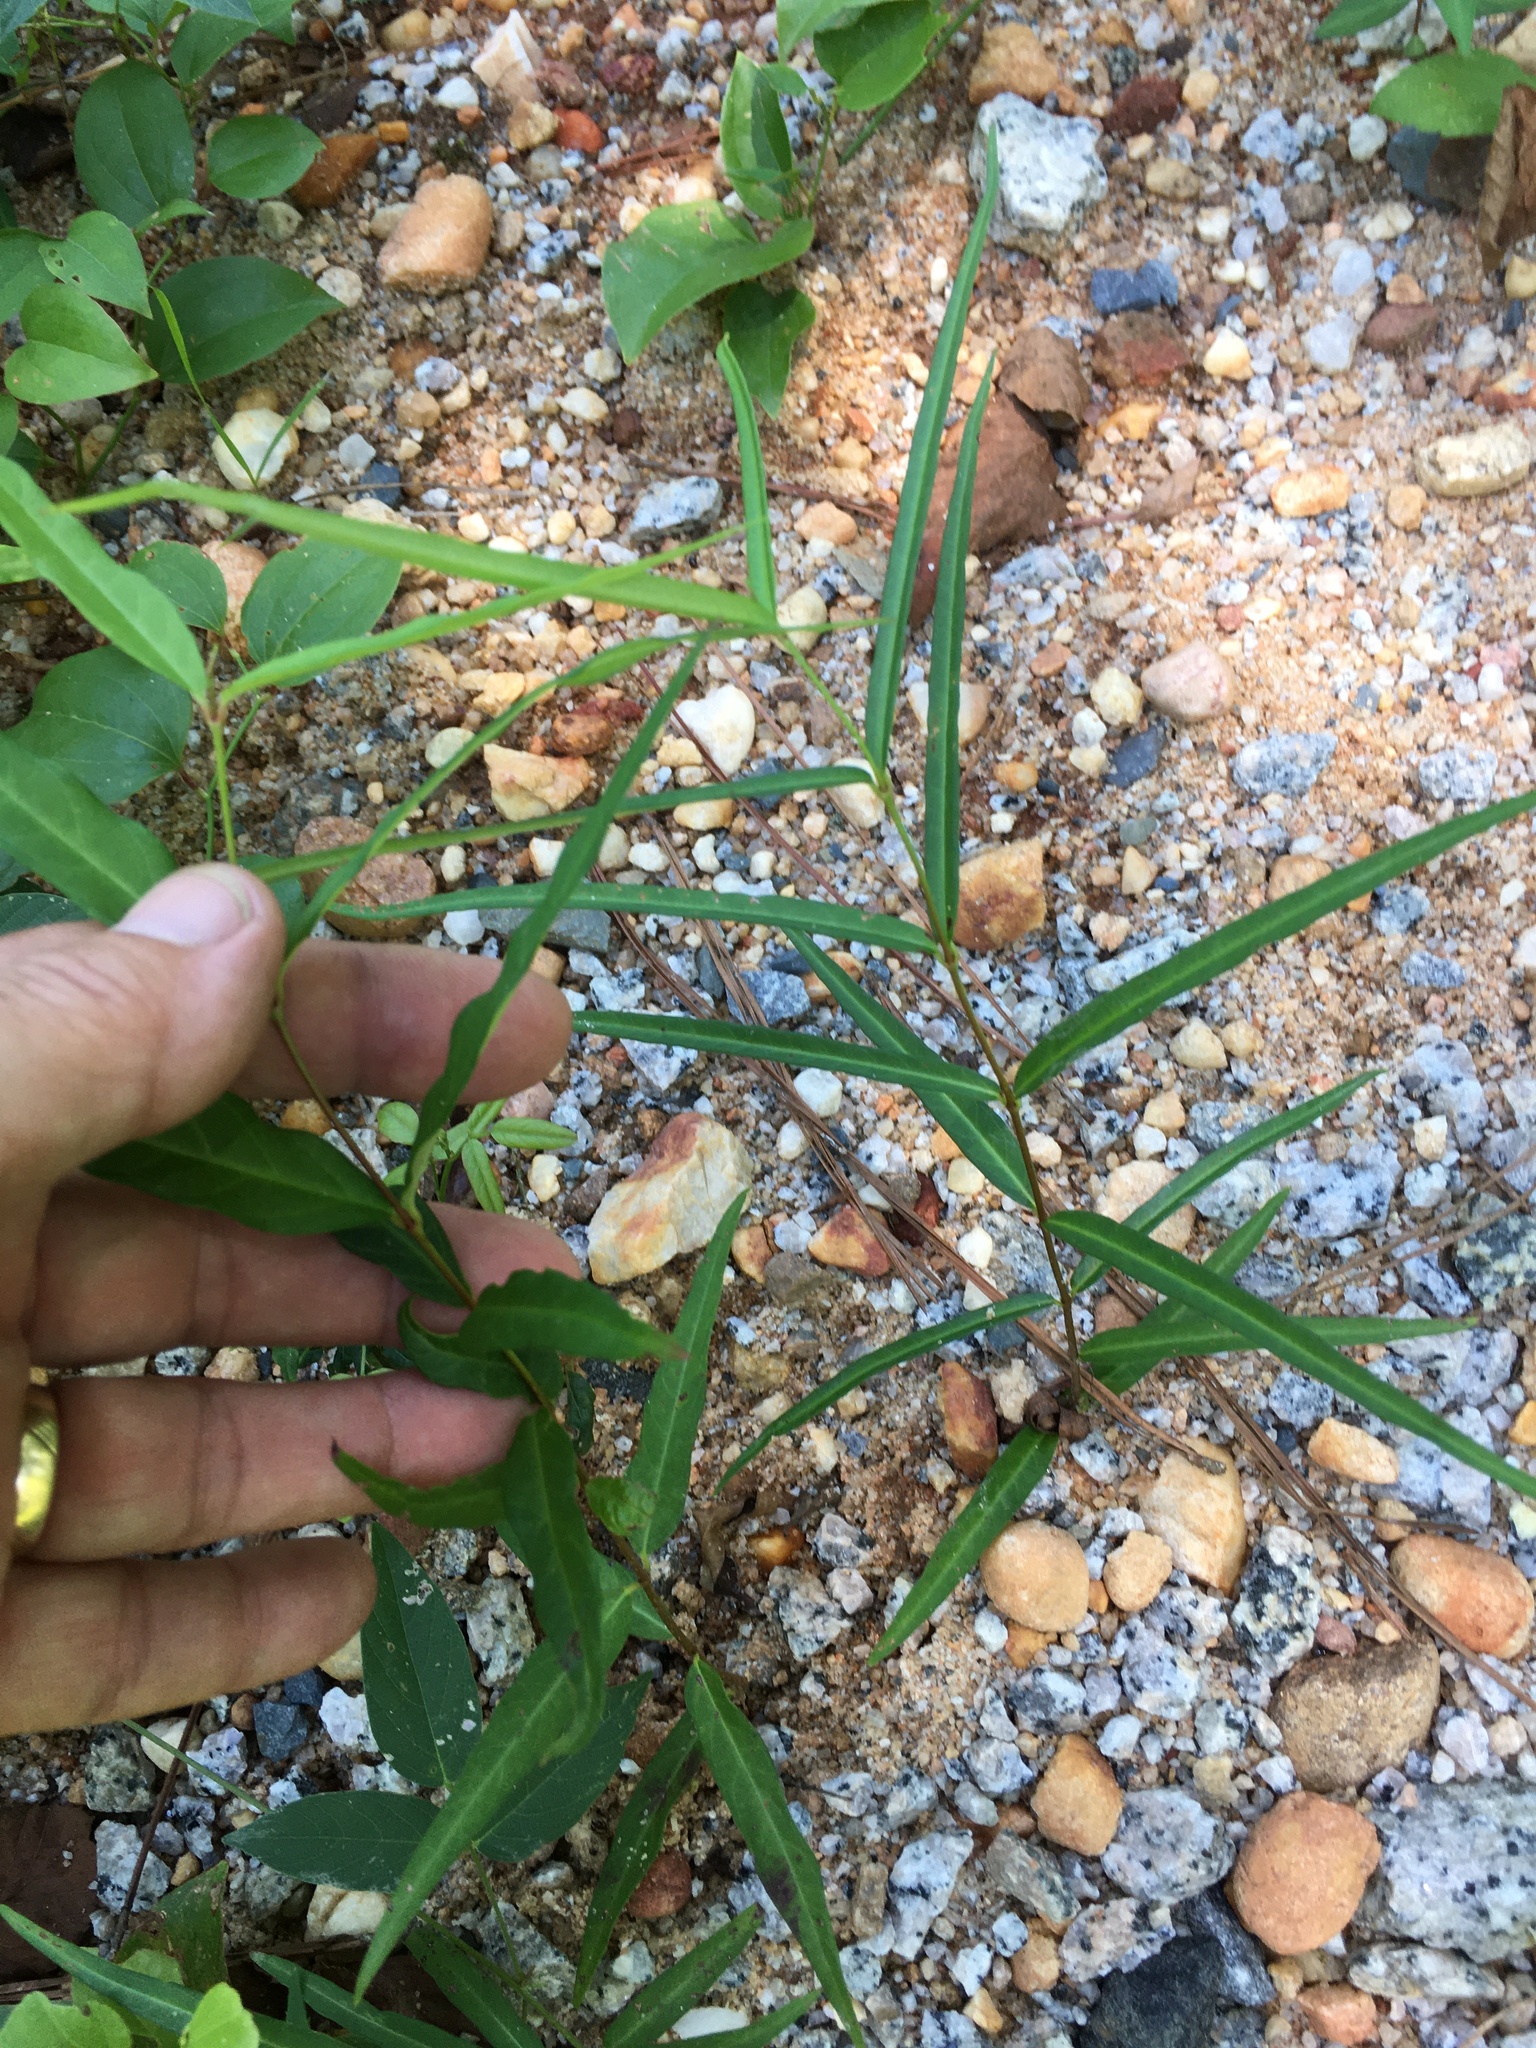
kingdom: Plantae
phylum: Tracheophyta
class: Magnoliopsida
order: Gentianales
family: Apocynaceae
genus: Thyrsanthella
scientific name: Thyrsanthella difformis
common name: Climbing dogbane
